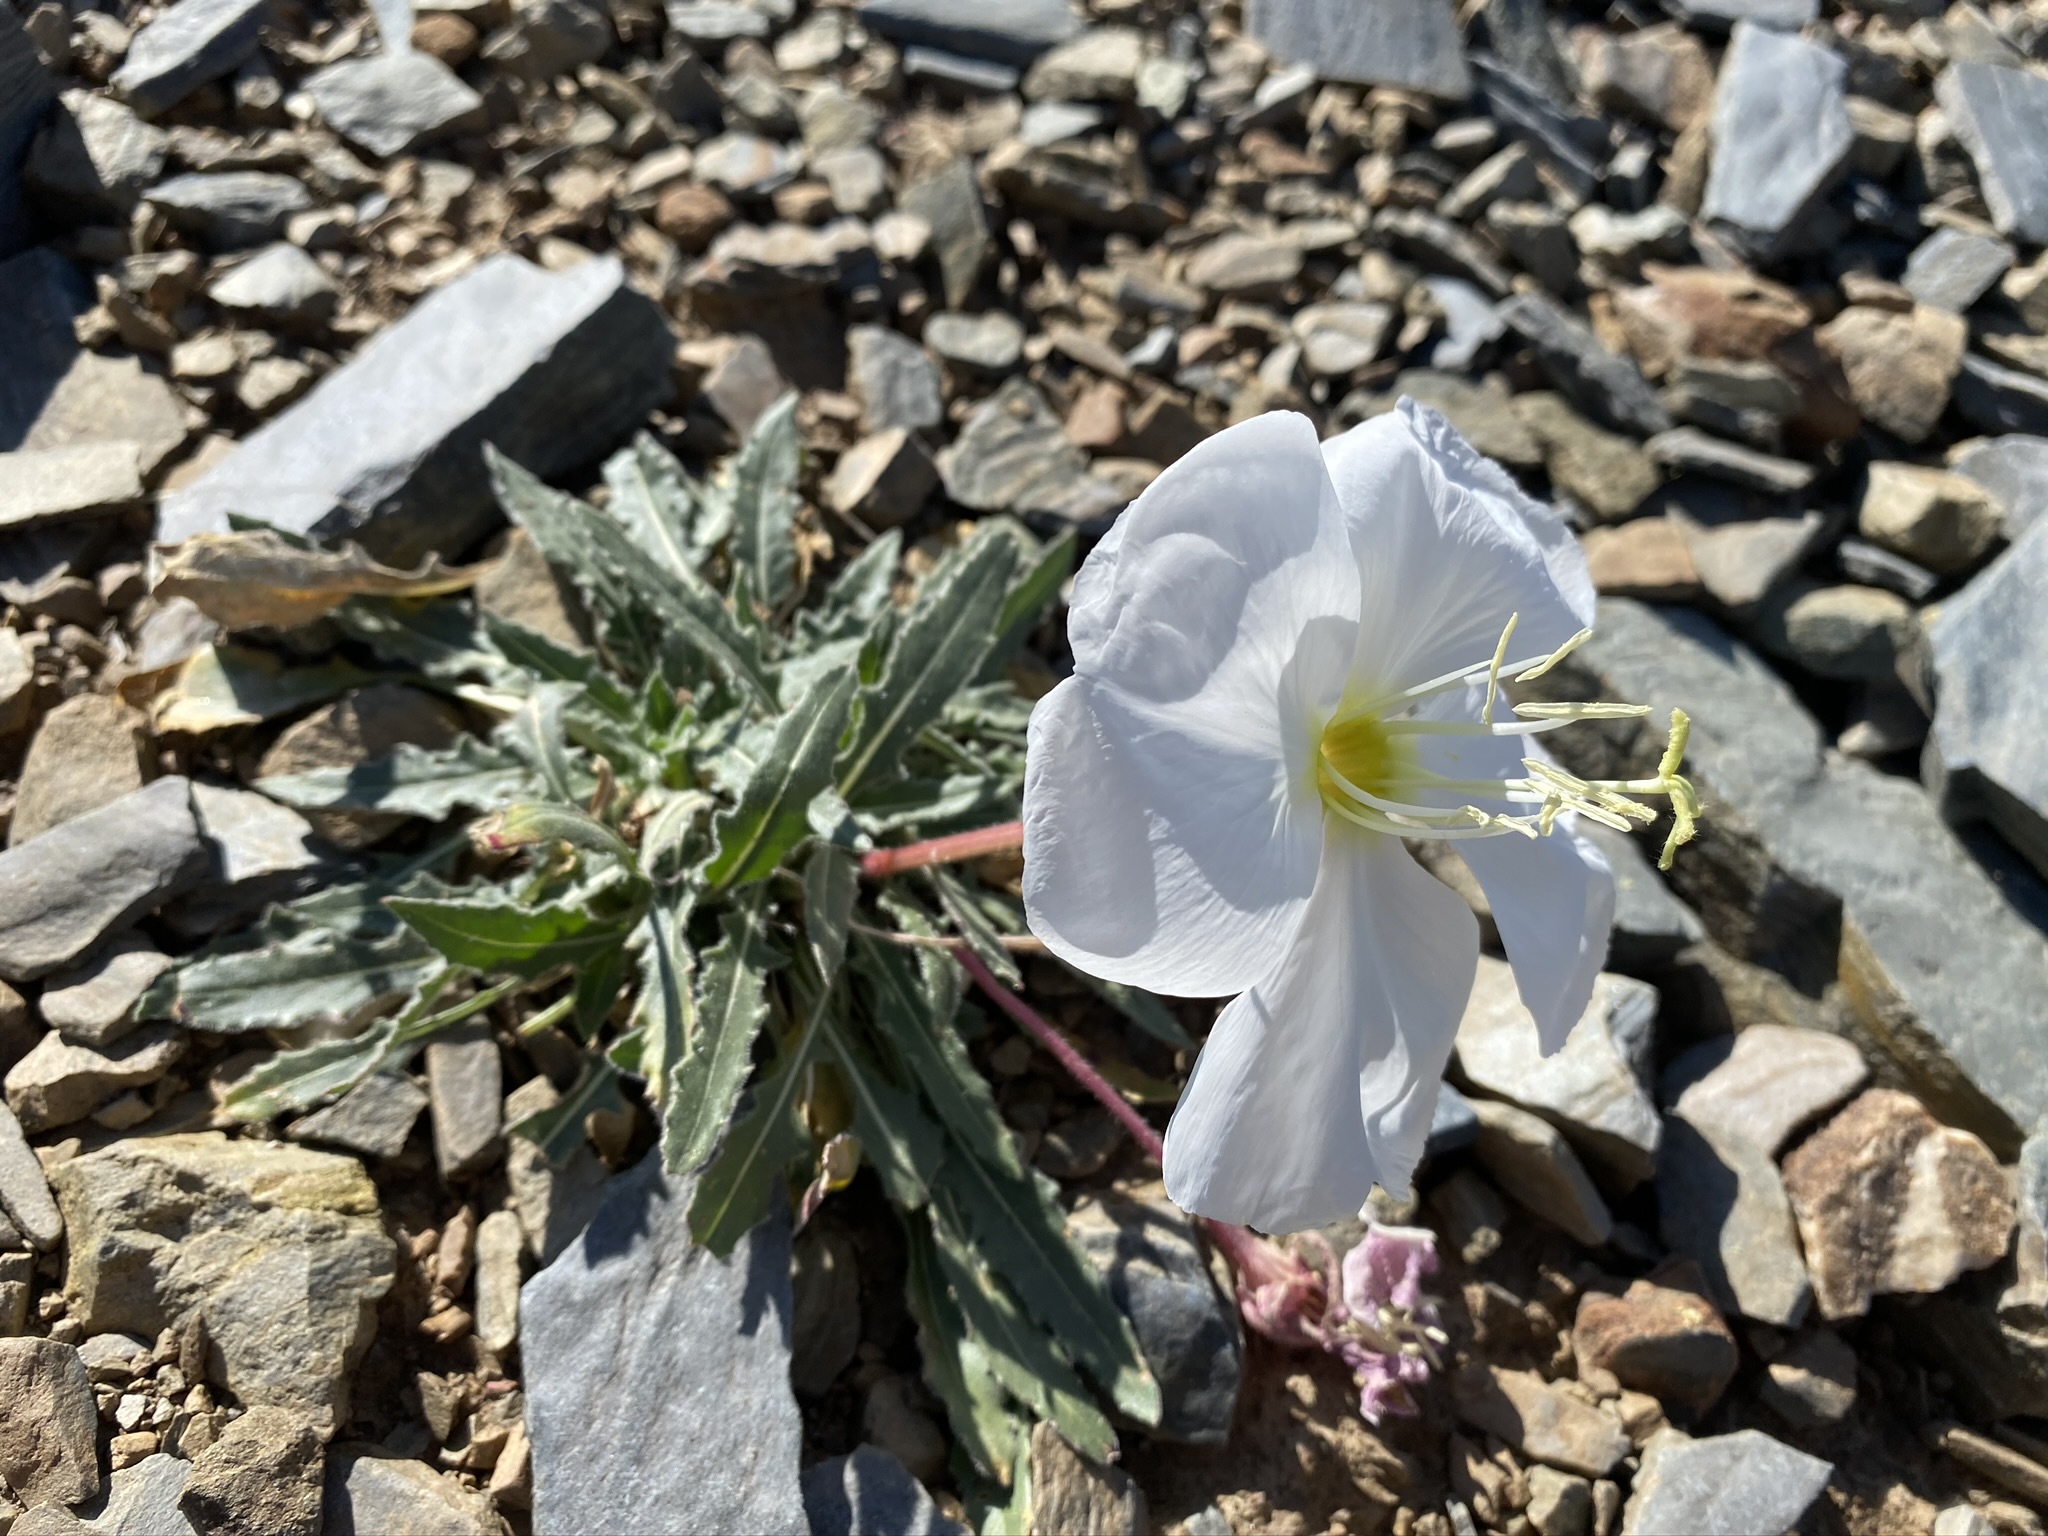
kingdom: Plantae
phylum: Tracheophyta
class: Magnoliopsida
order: Myrtales
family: Onagraceae
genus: Oenothera
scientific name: Oenothera cespitosa
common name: Tufted evening-primrose
